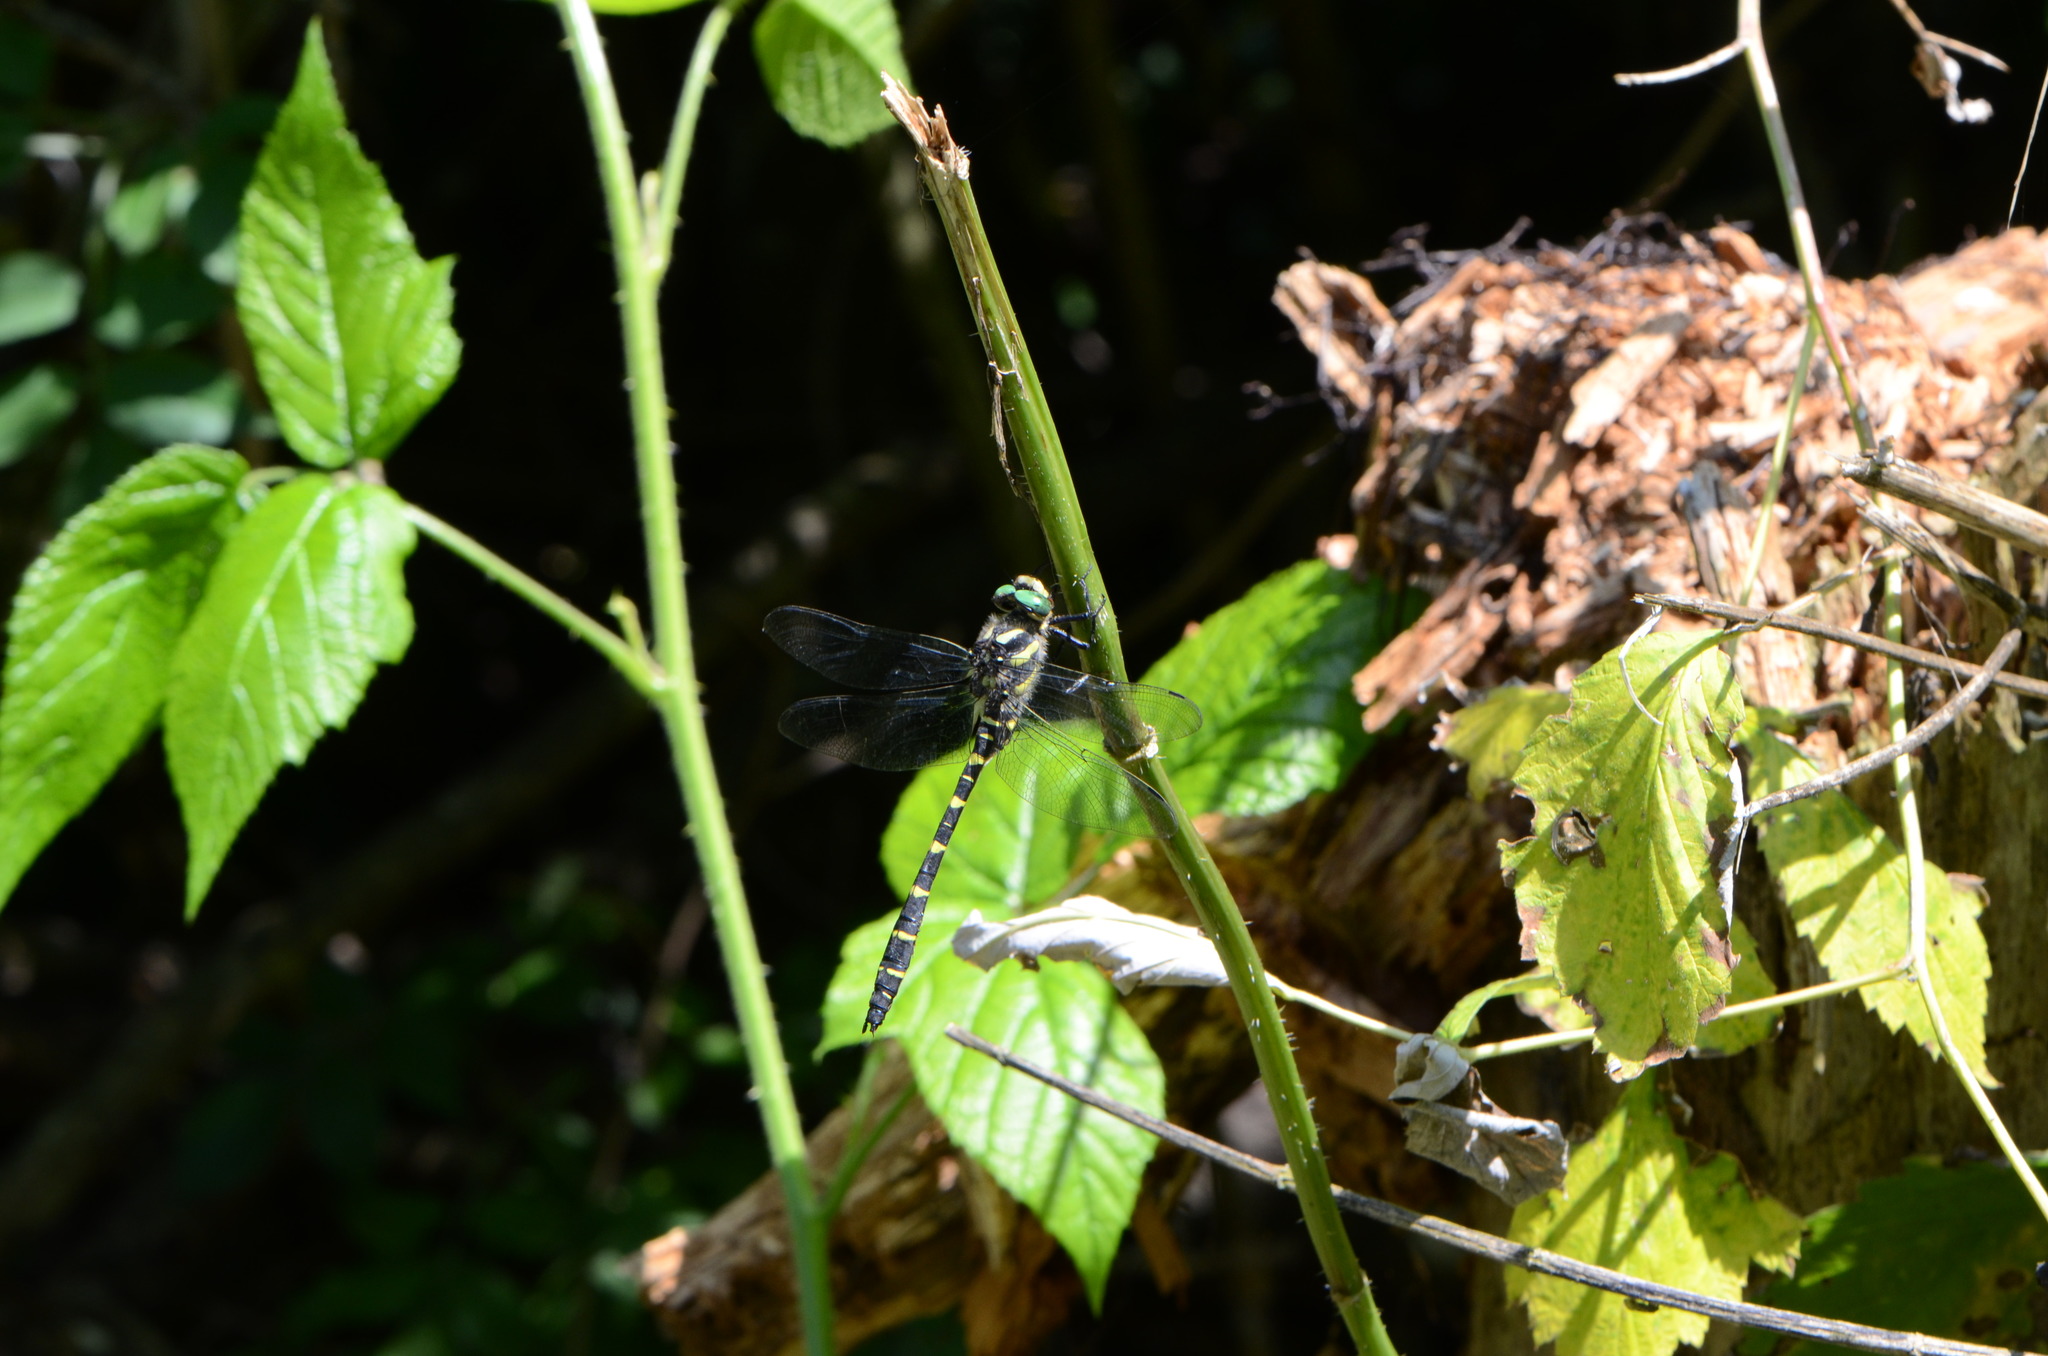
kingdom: Animalia
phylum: Arthropoda
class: Insecta
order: Odonata
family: Cordulegastridae
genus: Cordulegaster
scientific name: Cordulegaster bidentata
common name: Sombre goldenring
